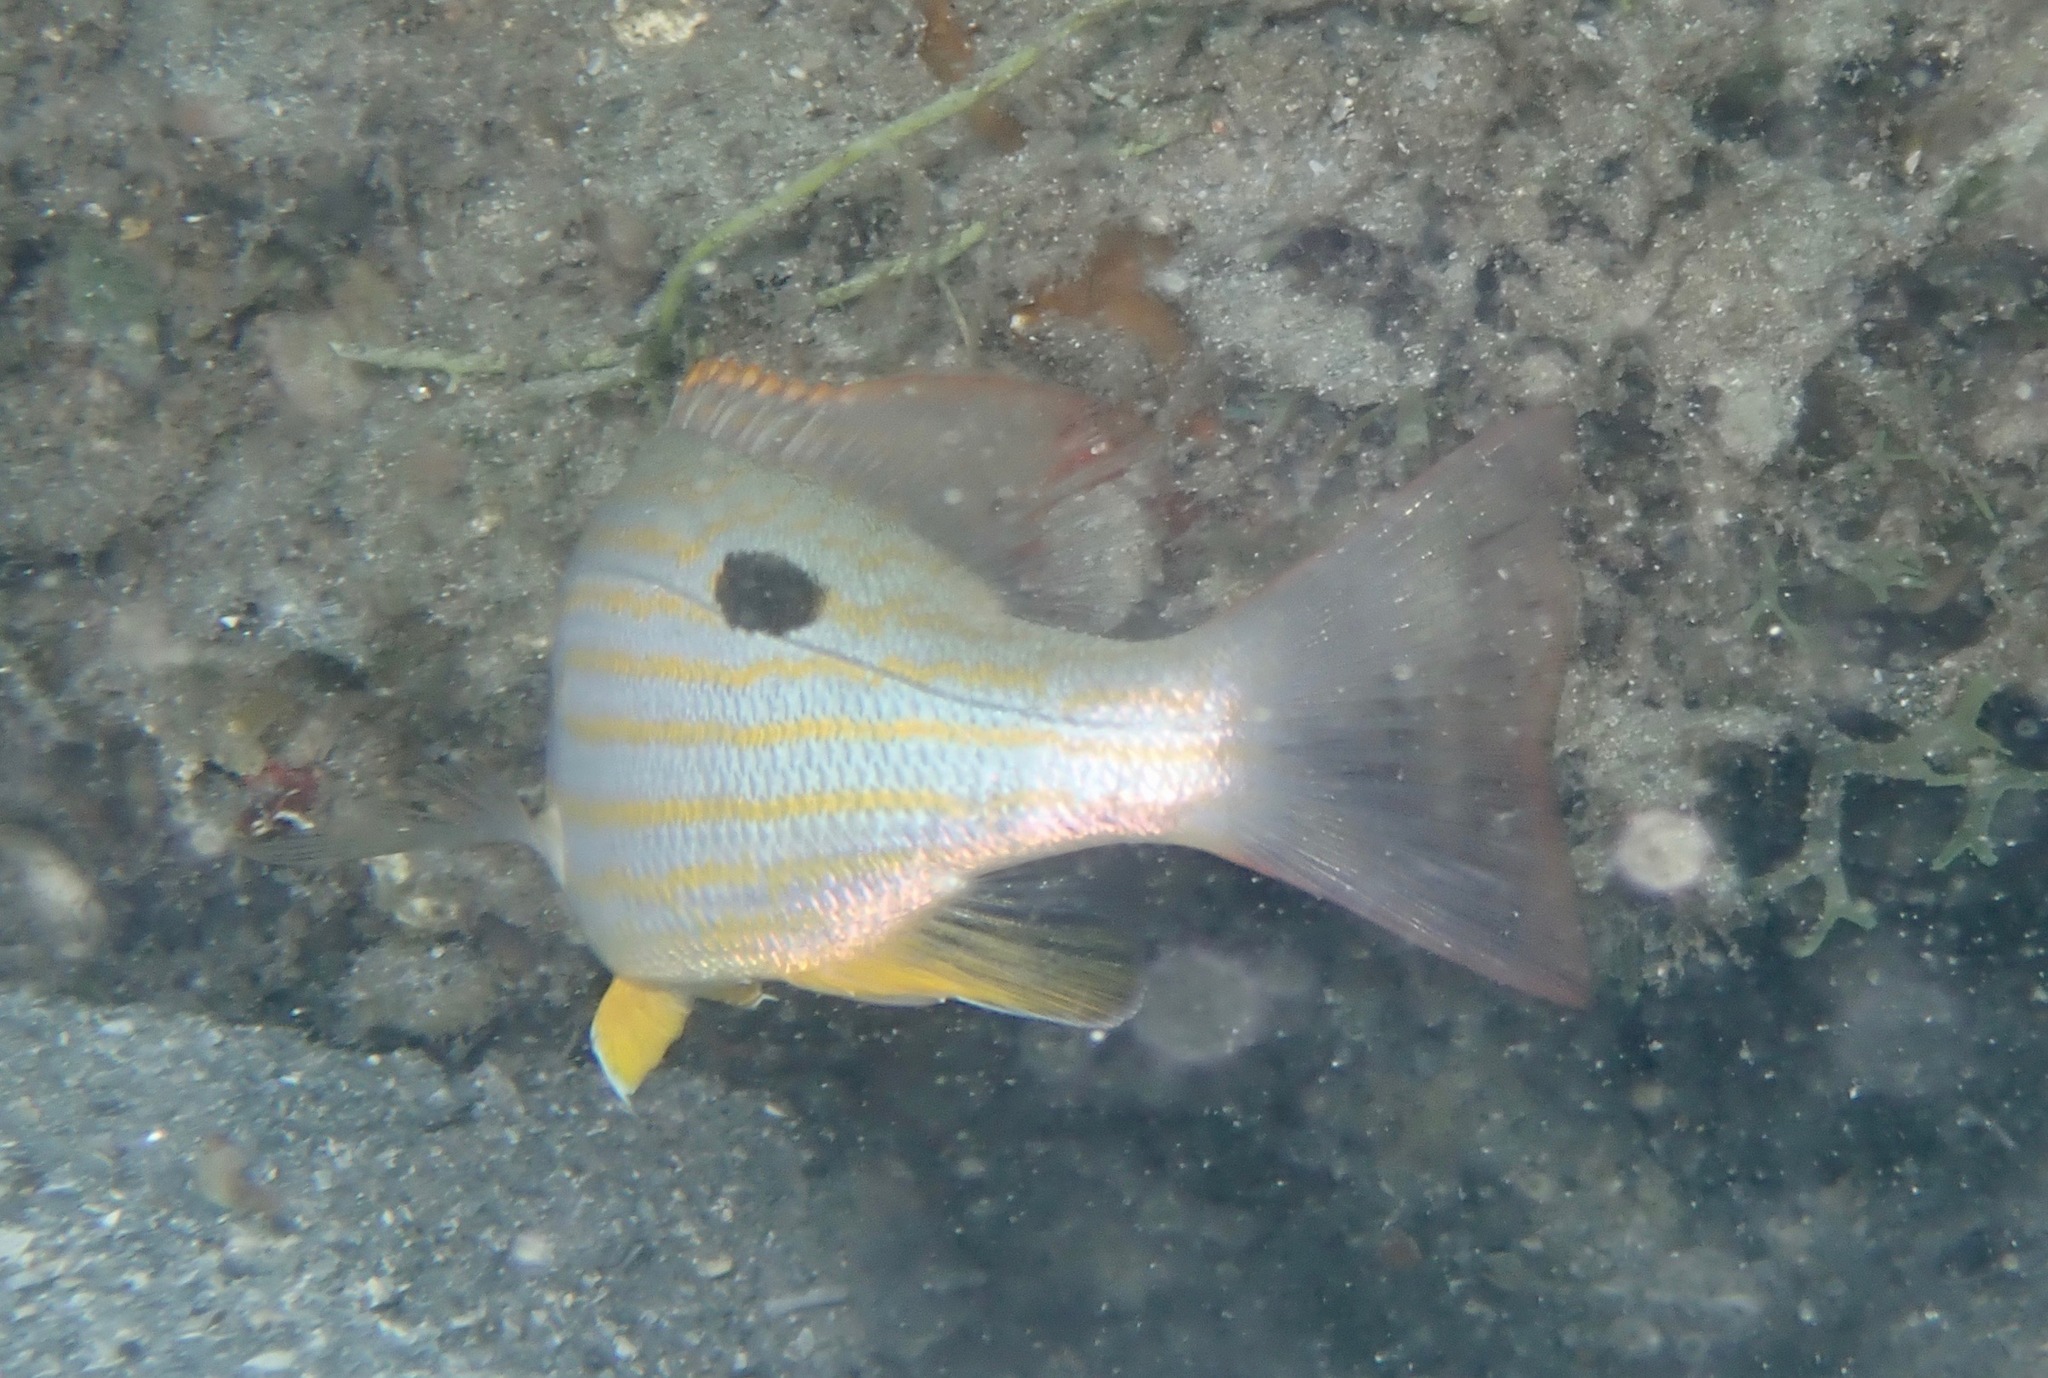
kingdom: Animalia
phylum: Chordata
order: Perciformes
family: Lutjanidae
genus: Lutjanus
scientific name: Lutjanus synagris
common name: Lane snapper
